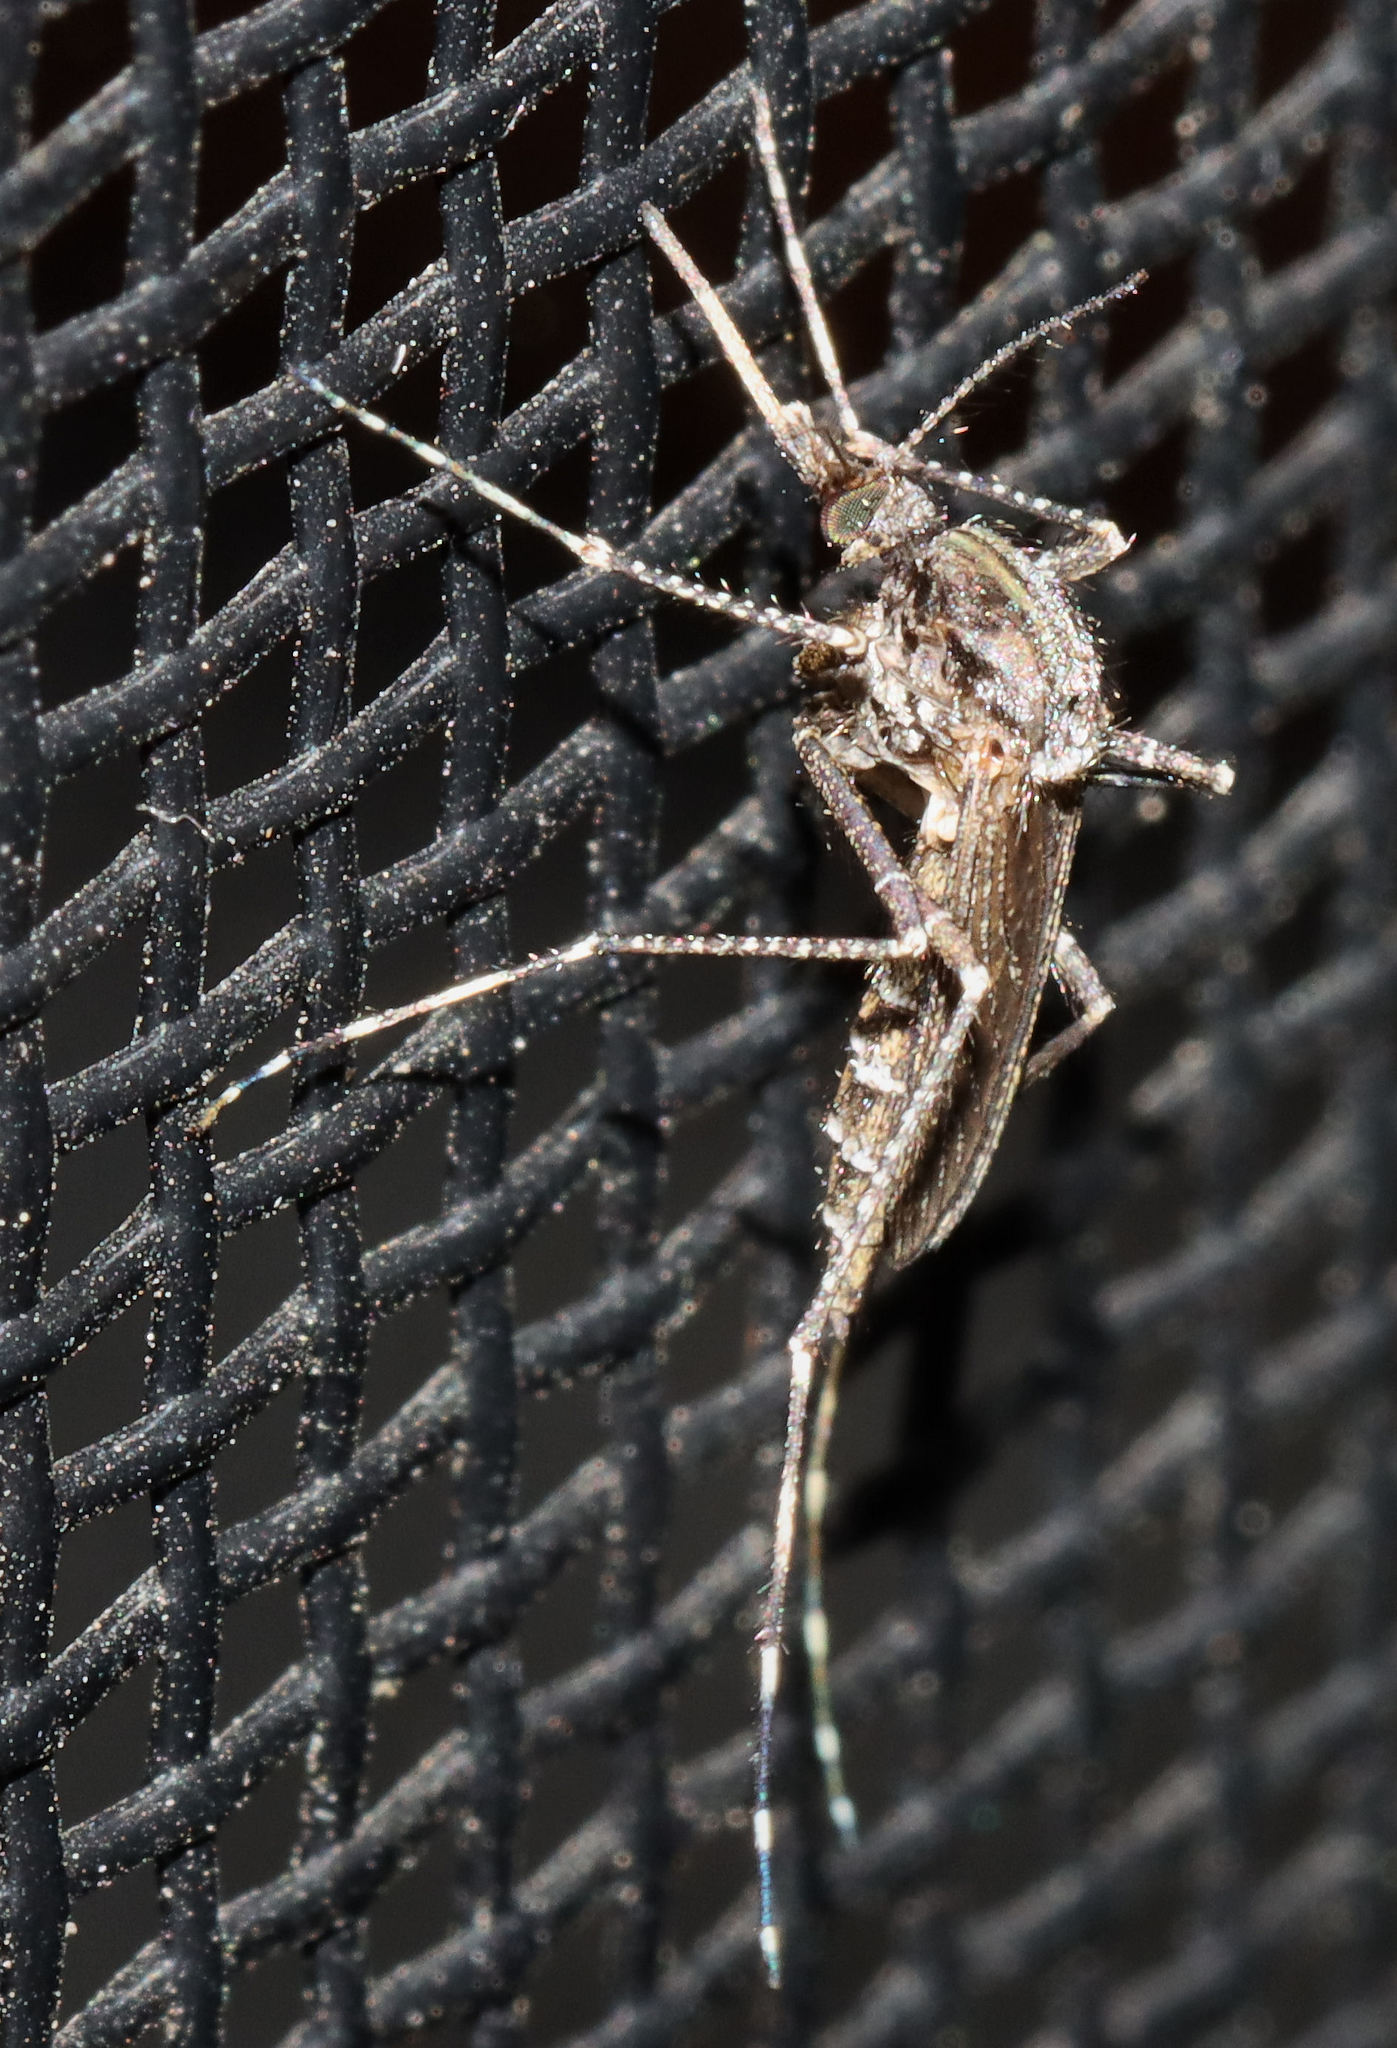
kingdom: Animalia
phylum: Arthropoda
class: Insecta
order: Diptera
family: Culicidae
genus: Psorophora
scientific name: Psorophora columbiae
